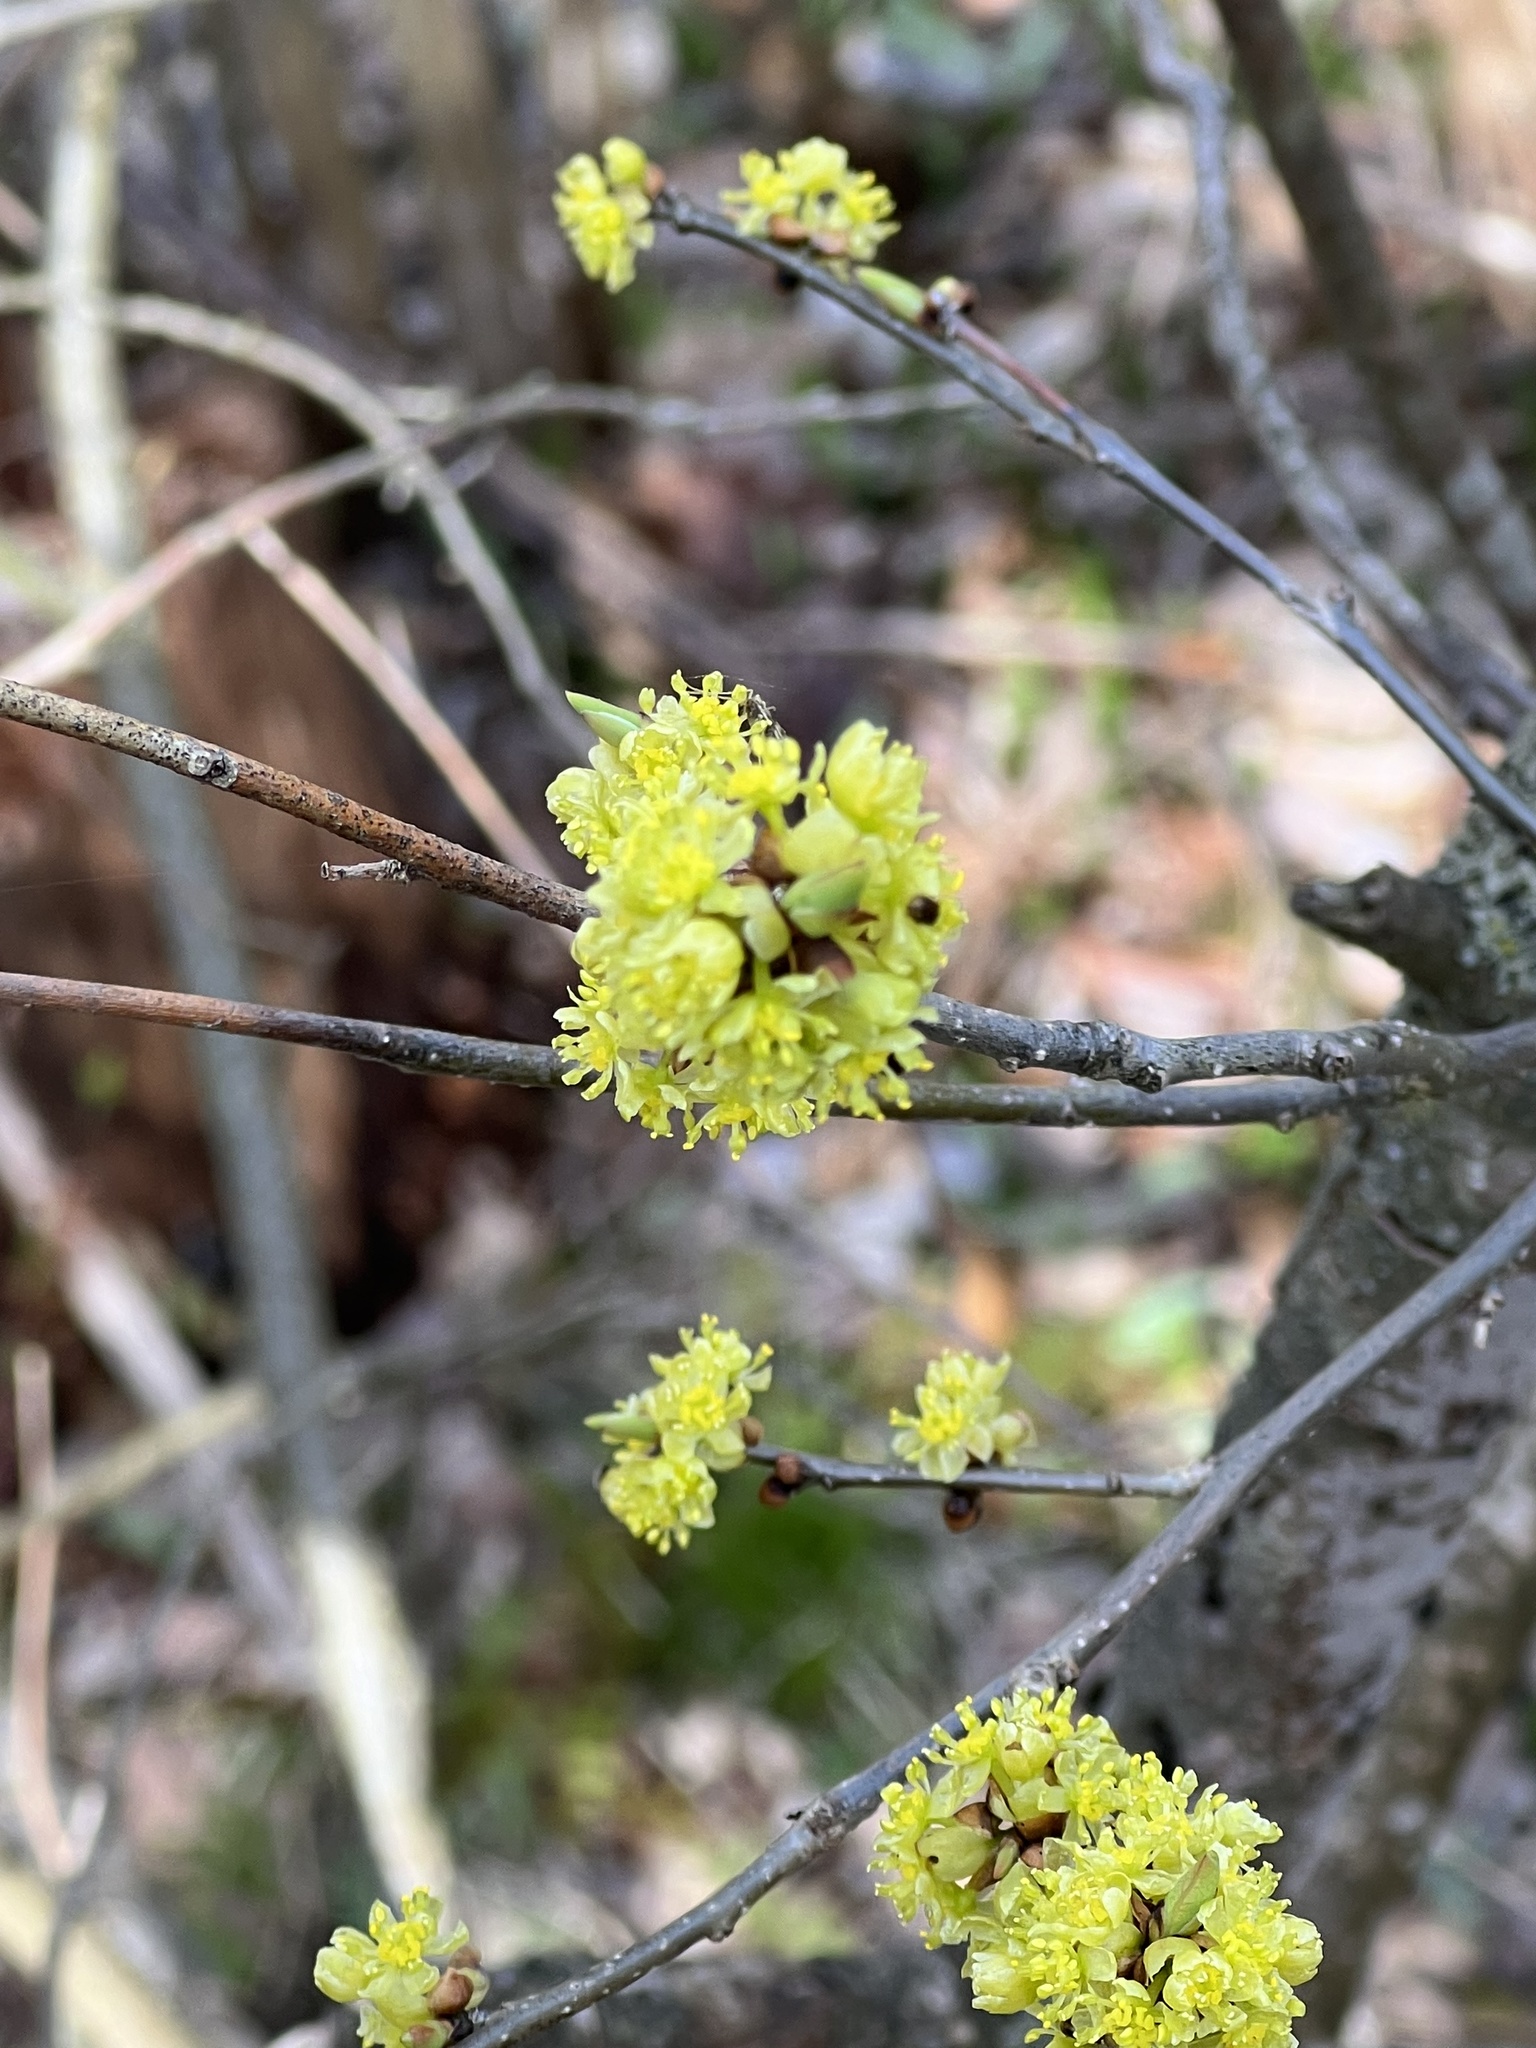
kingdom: Plantae
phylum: Tracheophyta
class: Magnoliopsida
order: Laurales
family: Lauraceae
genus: Lindera
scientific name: Lindera benzoin
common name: Spicebush
